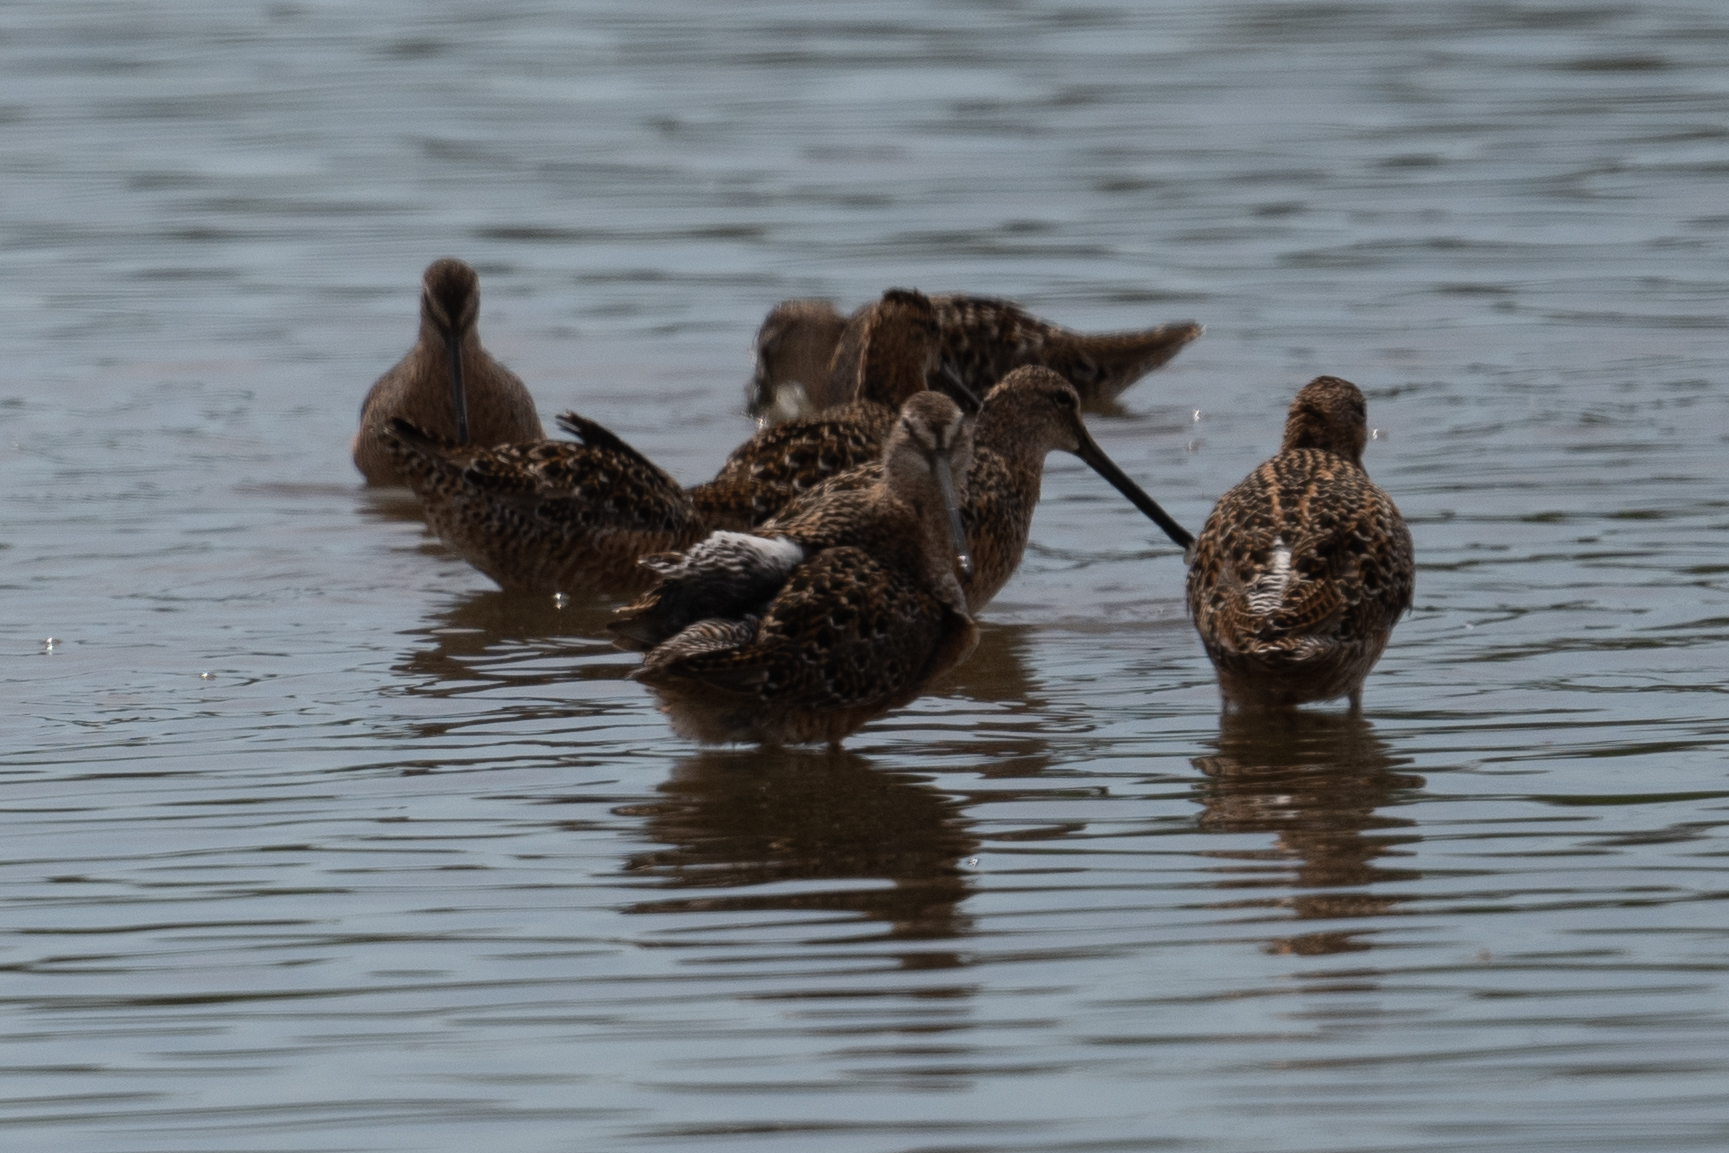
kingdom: Animalia
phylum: Chordata
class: Aves
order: Charadriiformes
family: Scolopacidae
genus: Limnodromus
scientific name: Limnodromus scolopaceus
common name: Long-billed dowitcher
